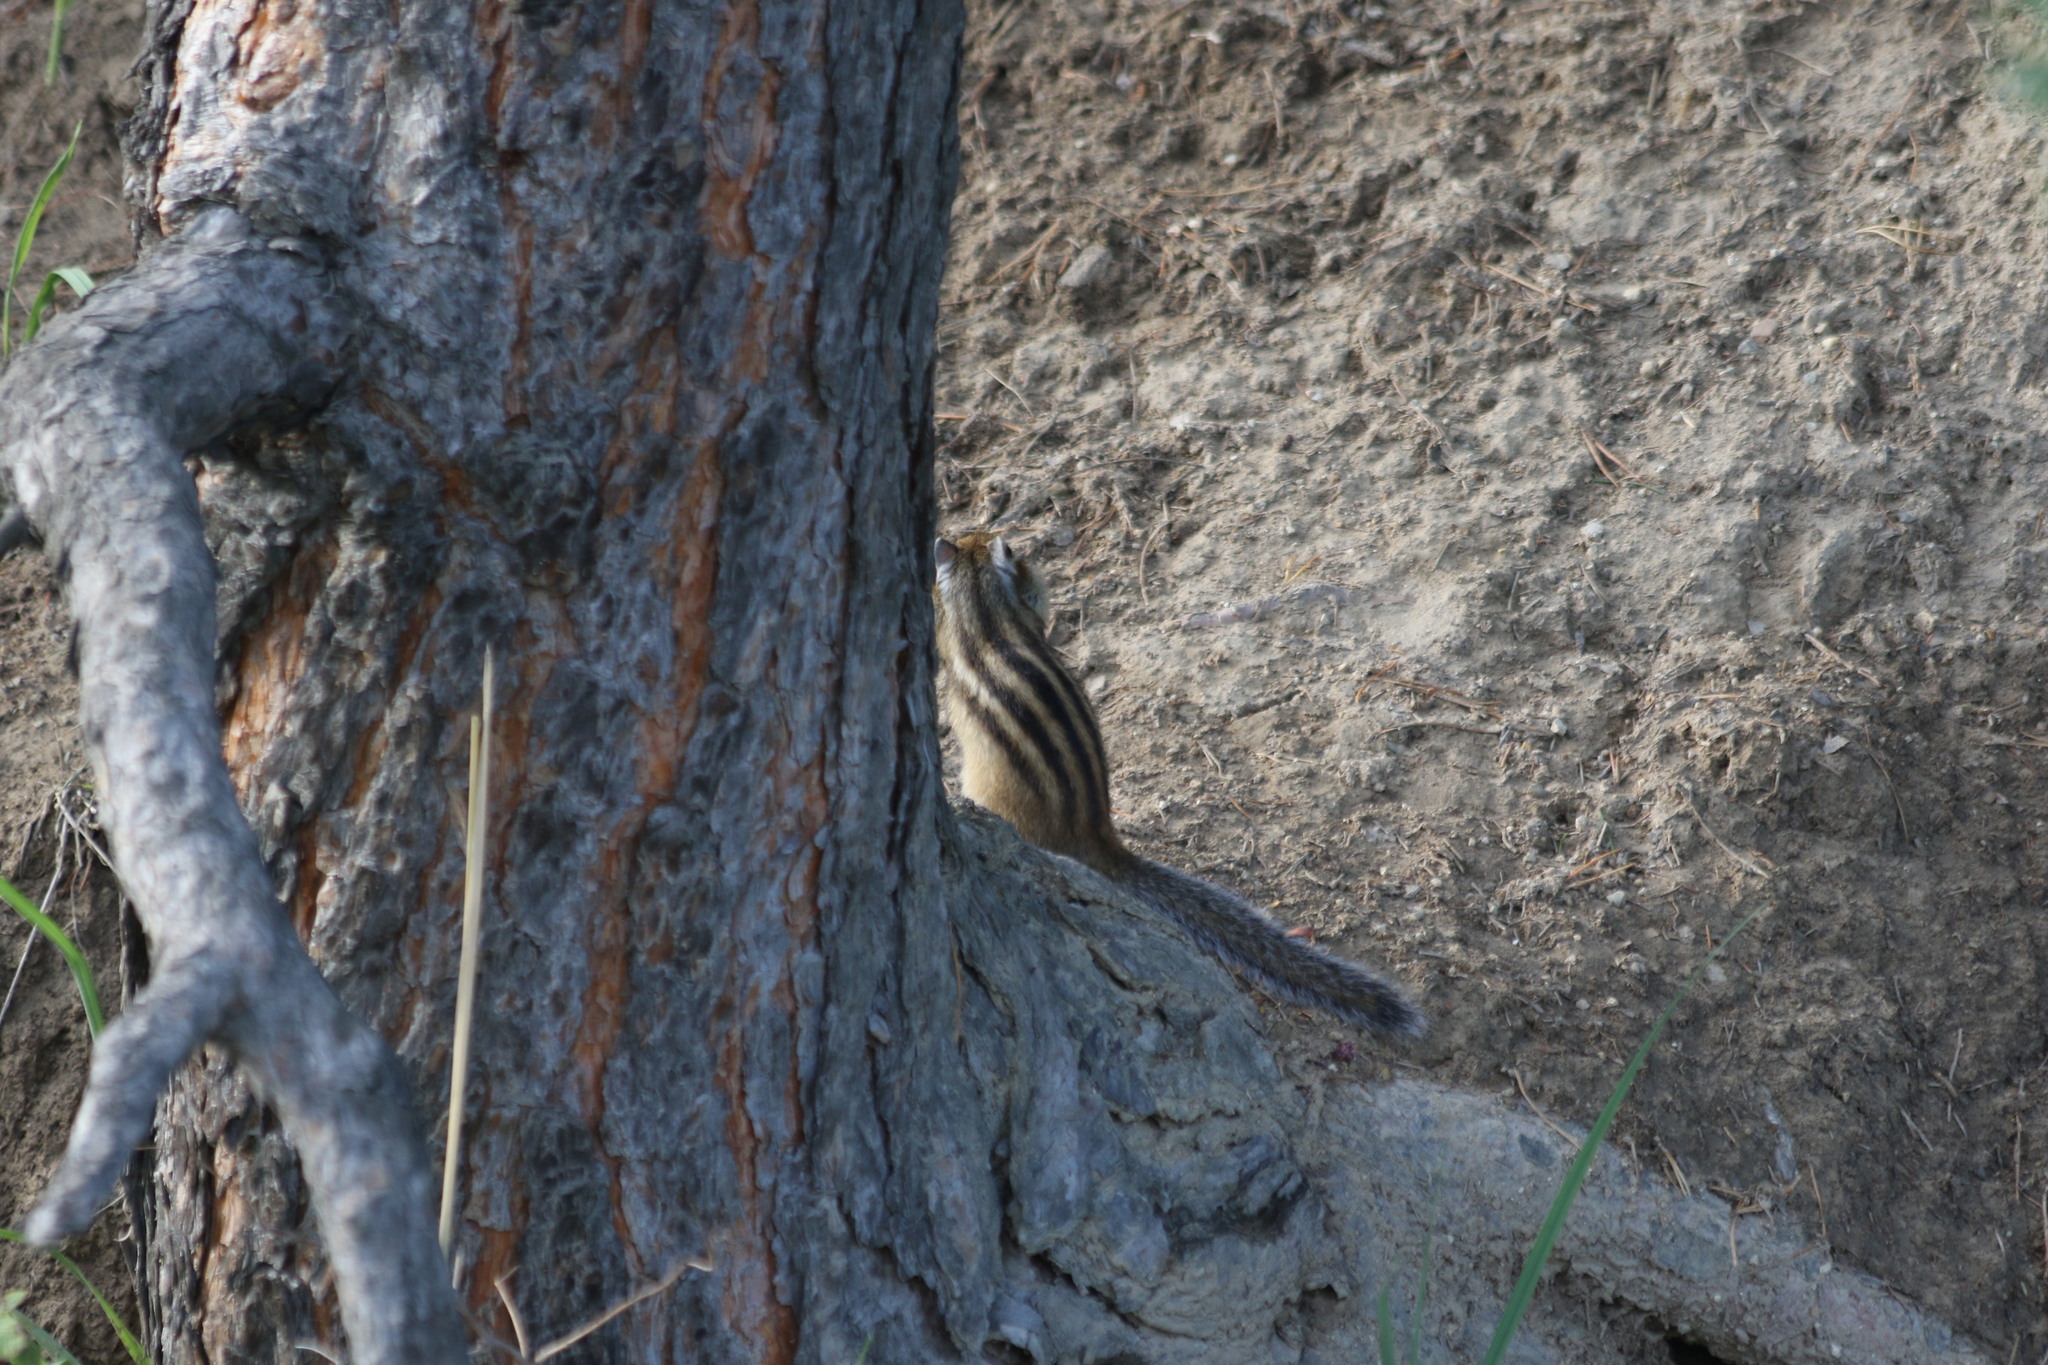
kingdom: Animalia
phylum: Chordata
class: Mammalia
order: Rodentia
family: Sciuridae
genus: Tamias
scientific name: Tamias sibiricus
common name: Siberian chipmunk
